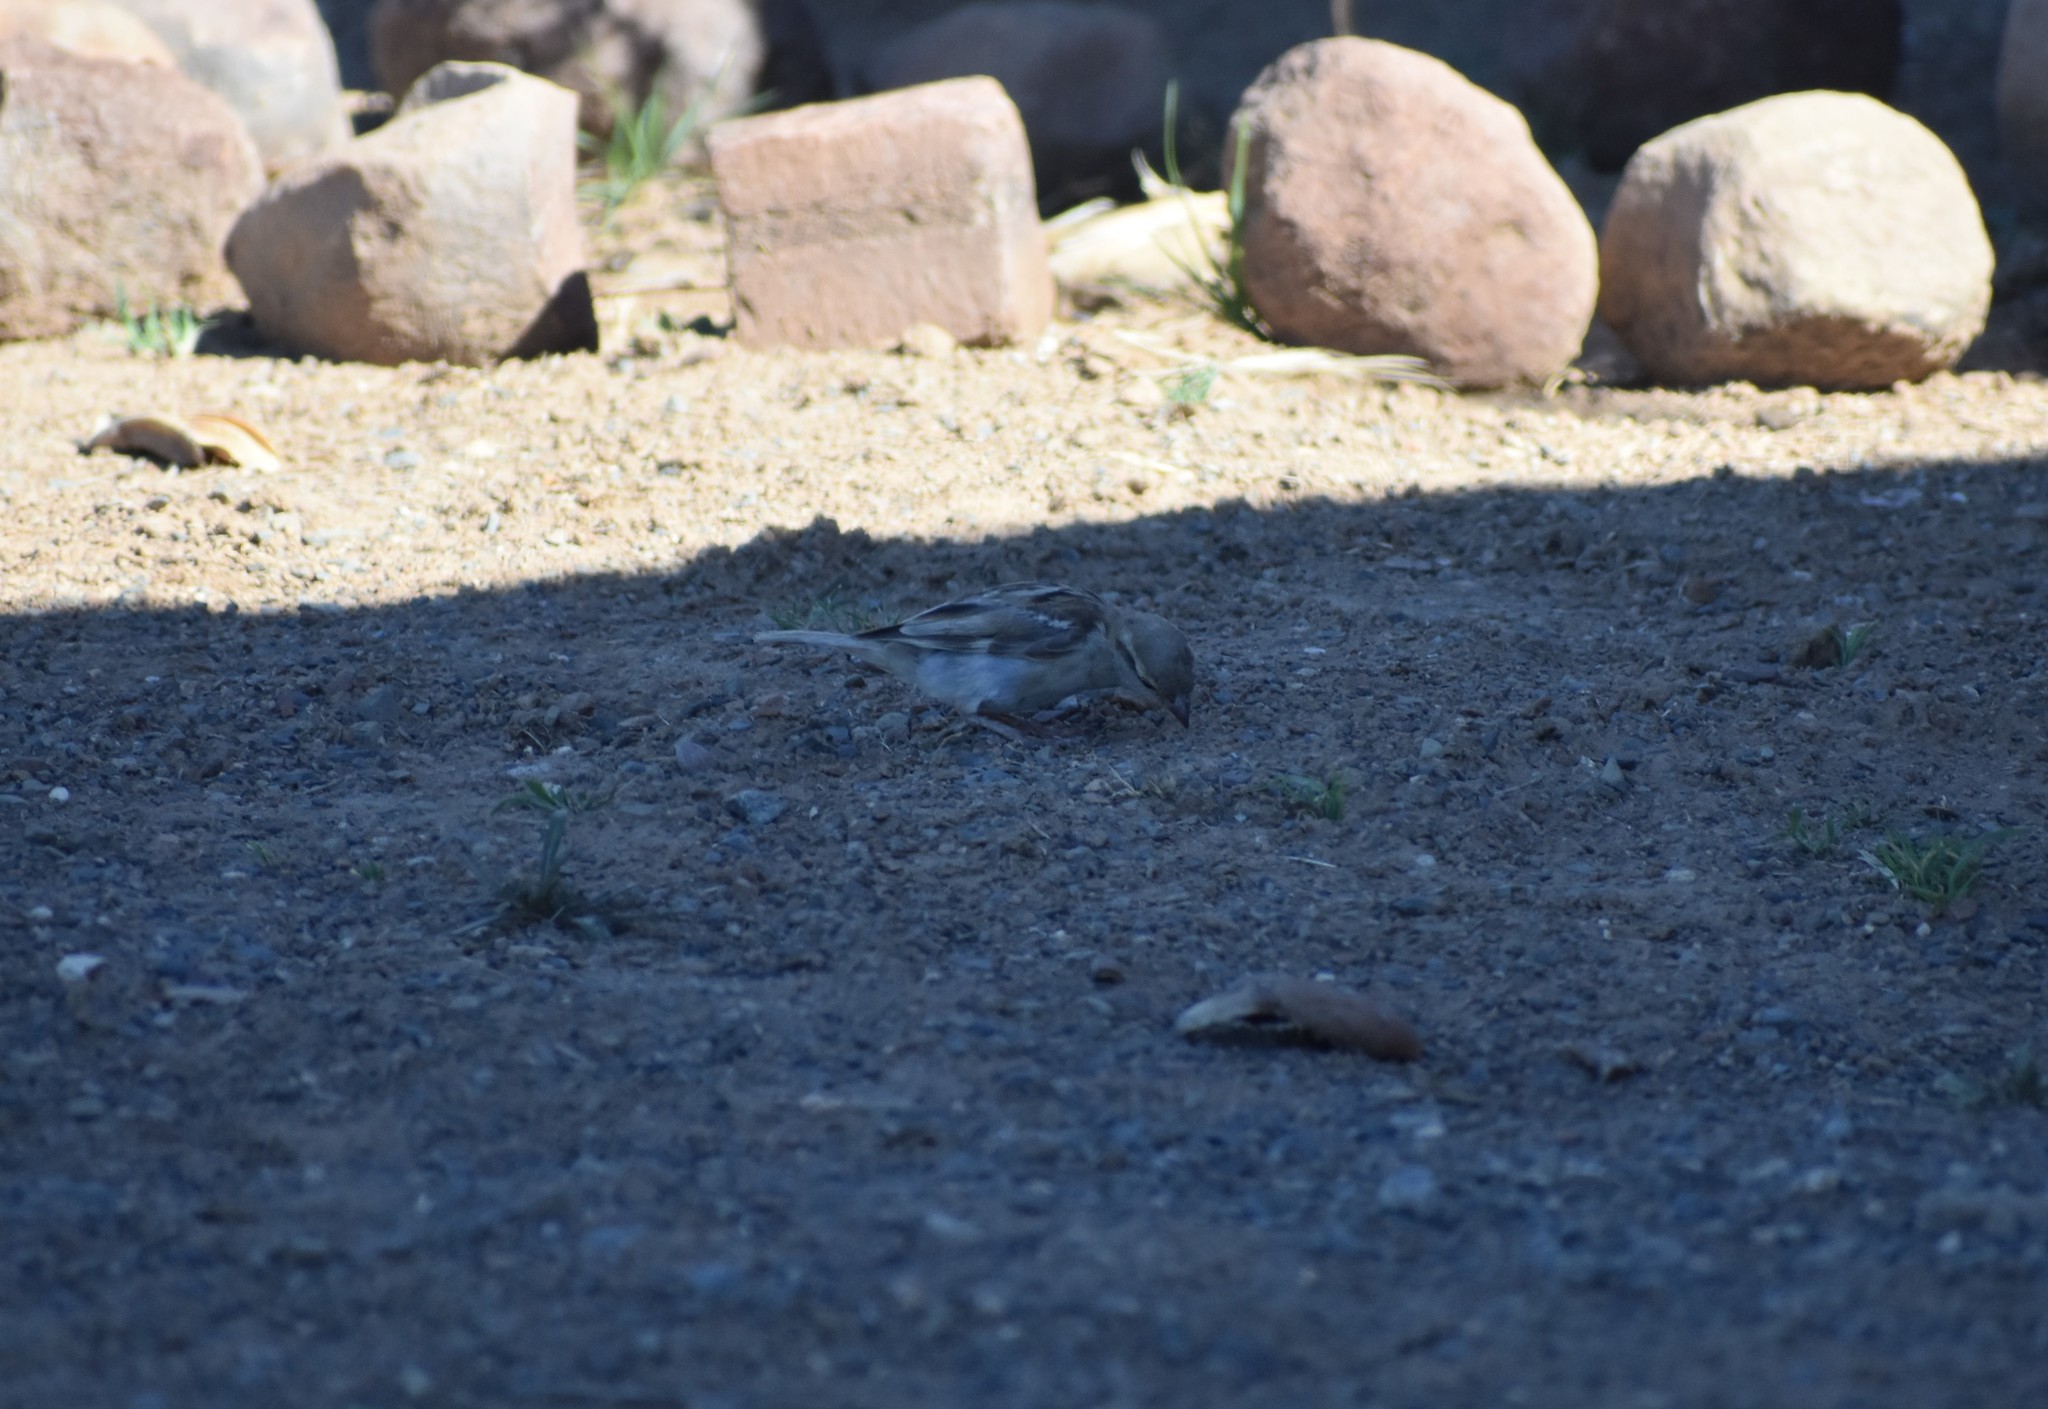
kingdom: Animalia
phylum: Chordata
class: Aves
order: Passeriformes
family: Passeridae
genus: Passer
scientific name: Passer domesticus
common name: House sparrow
